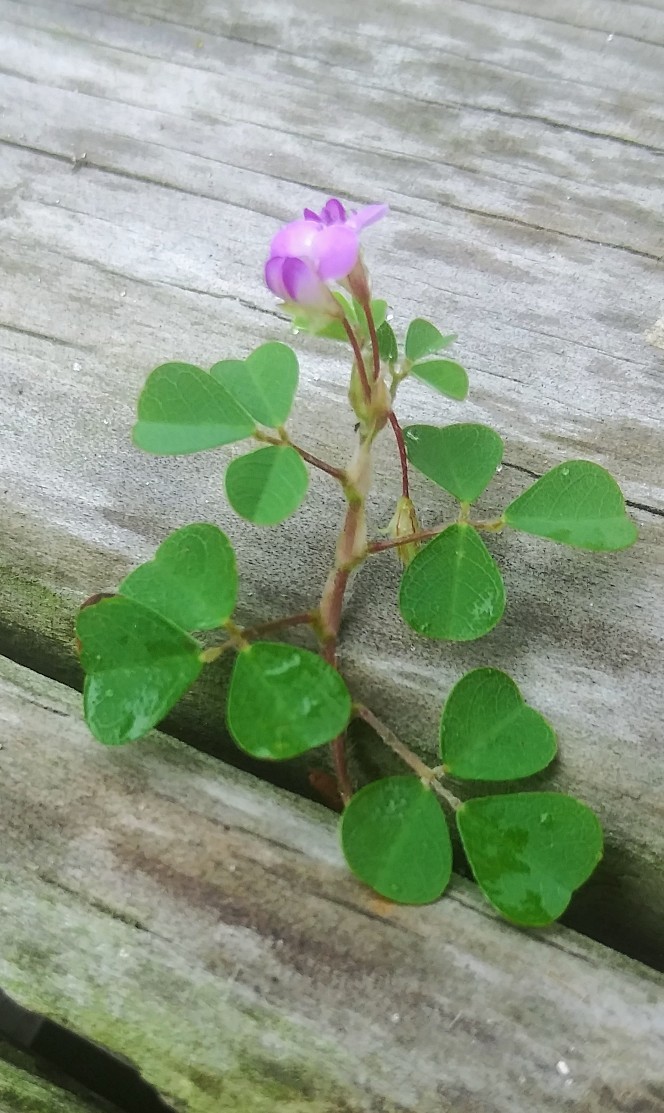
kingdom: Plantae
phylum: Tracheophyta
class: Magnoliopsida
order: Fabales
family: Fabaceae
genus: Grona
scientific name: Grona triflora
